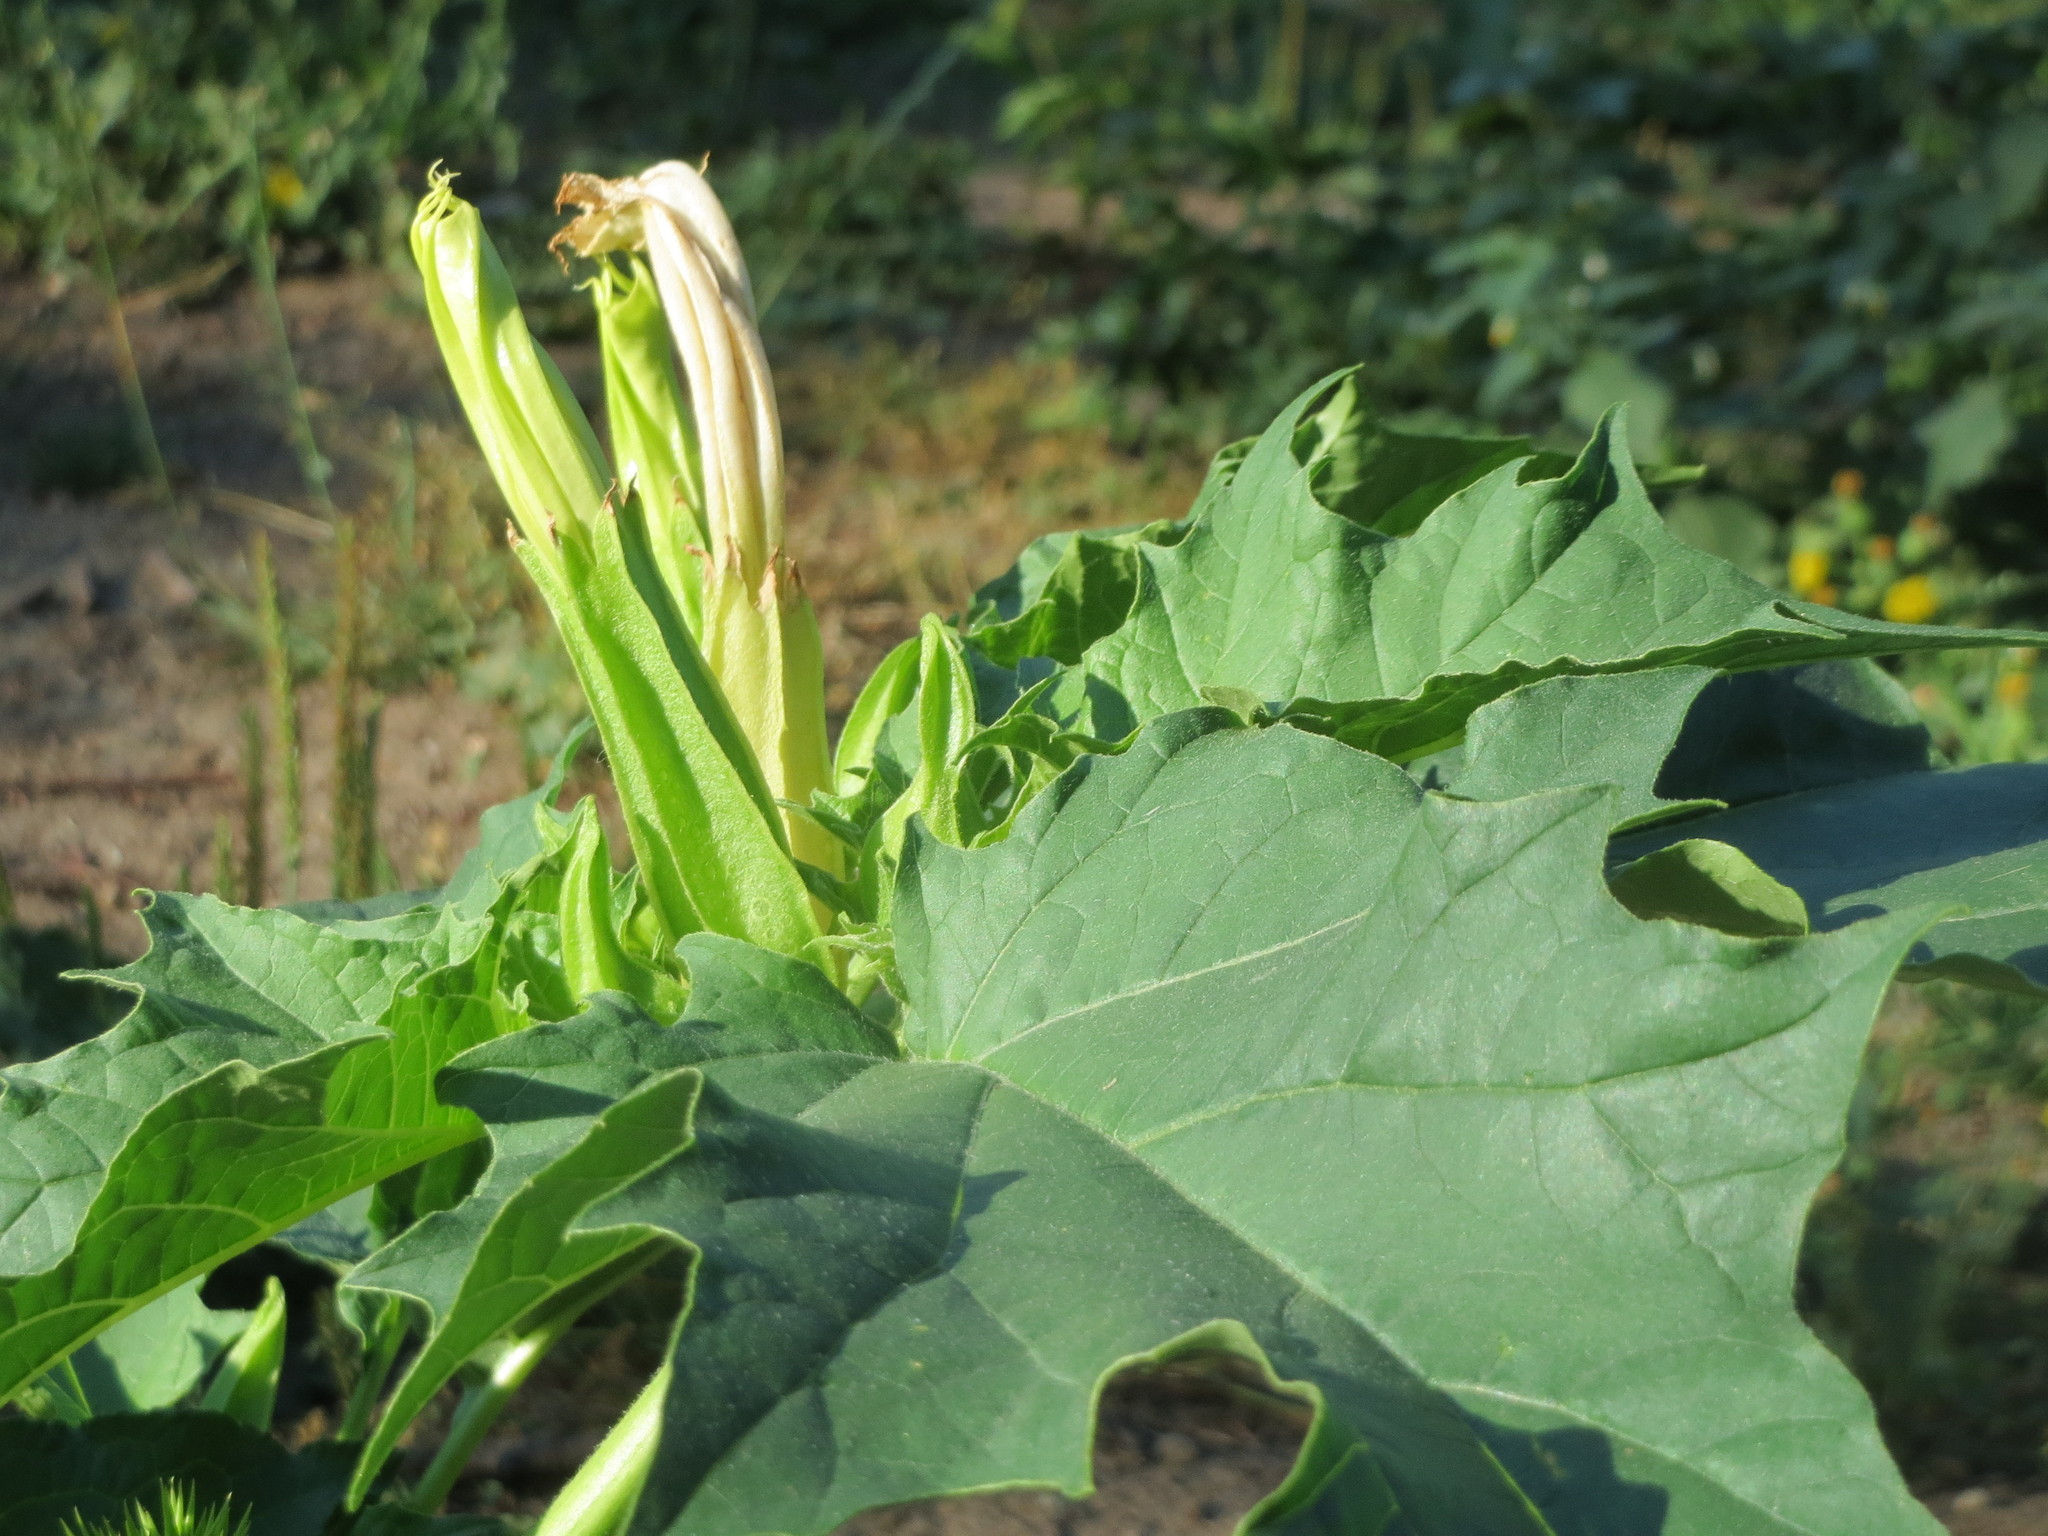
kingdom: Plantae
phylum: Tracheophyta
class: Magnoliopsida
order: Solanales
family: Solanaceae
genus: Datura
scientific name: Datura stramonium
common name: Thorn-apple
